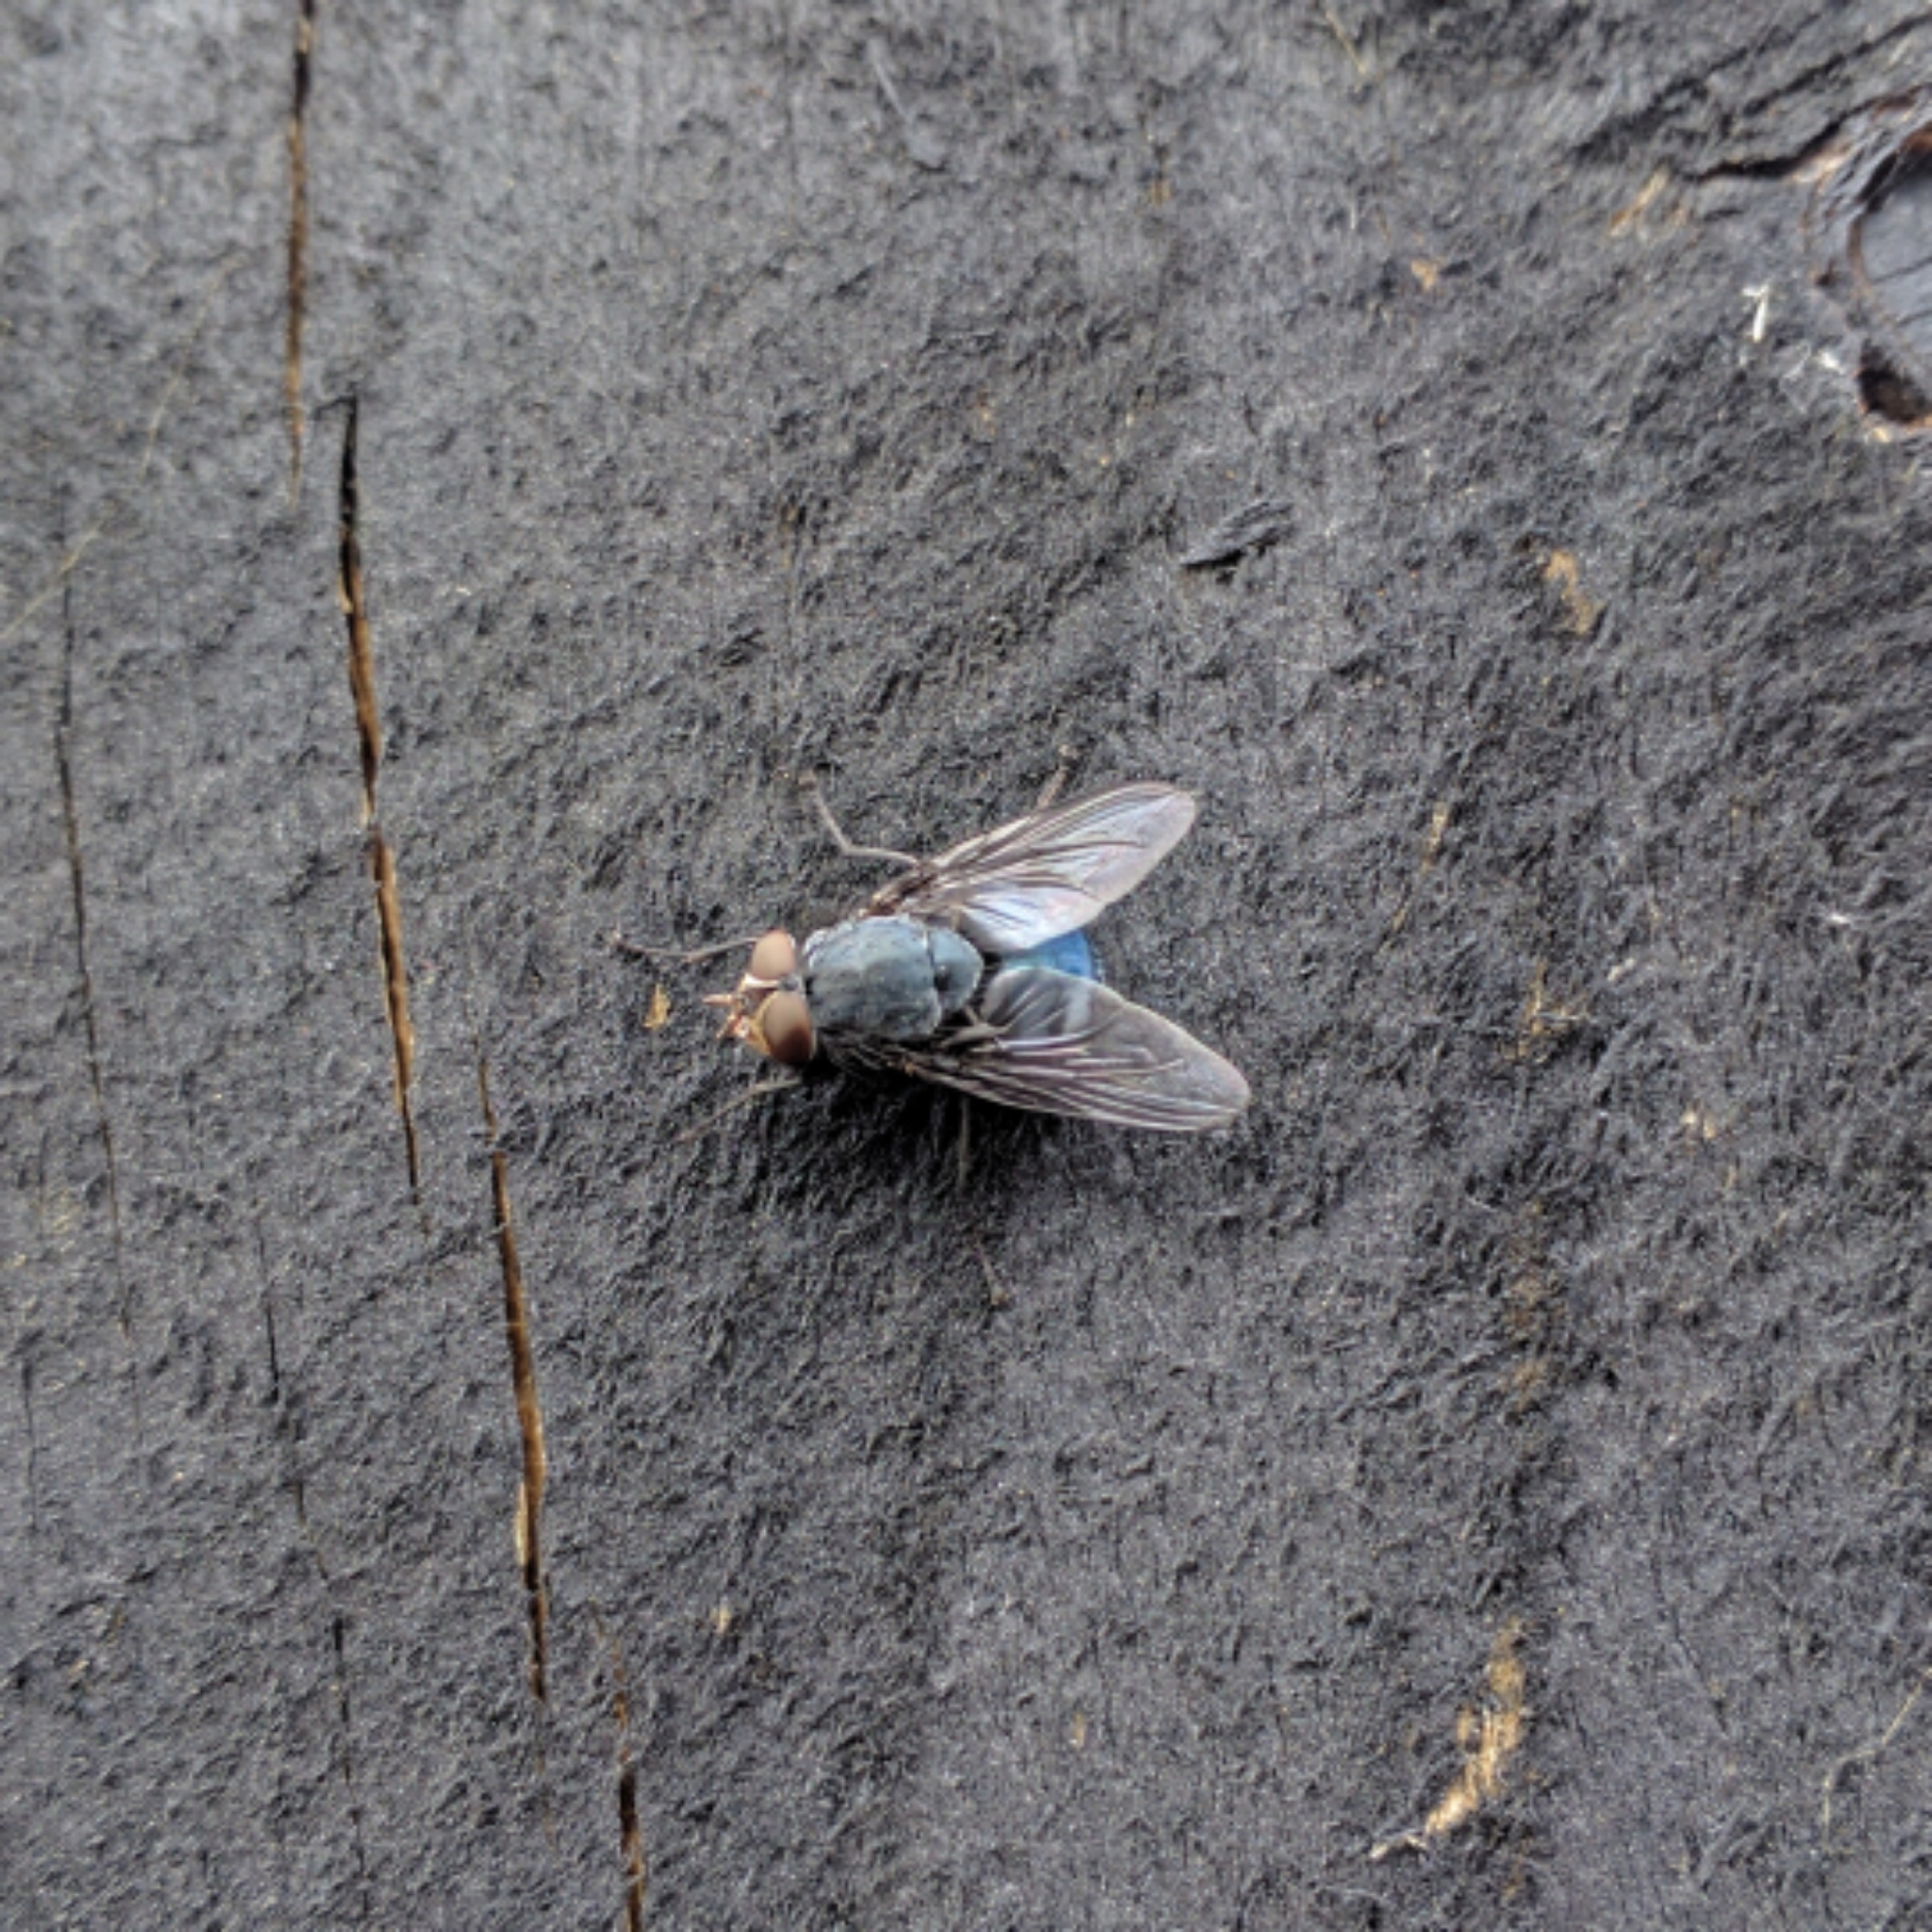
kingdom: Animalia
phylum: Arthropoda
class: Insecta
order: Diptera
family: Calliphoridae
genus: Calliphora
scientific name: Calliphora vicina
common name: Common blow flie
